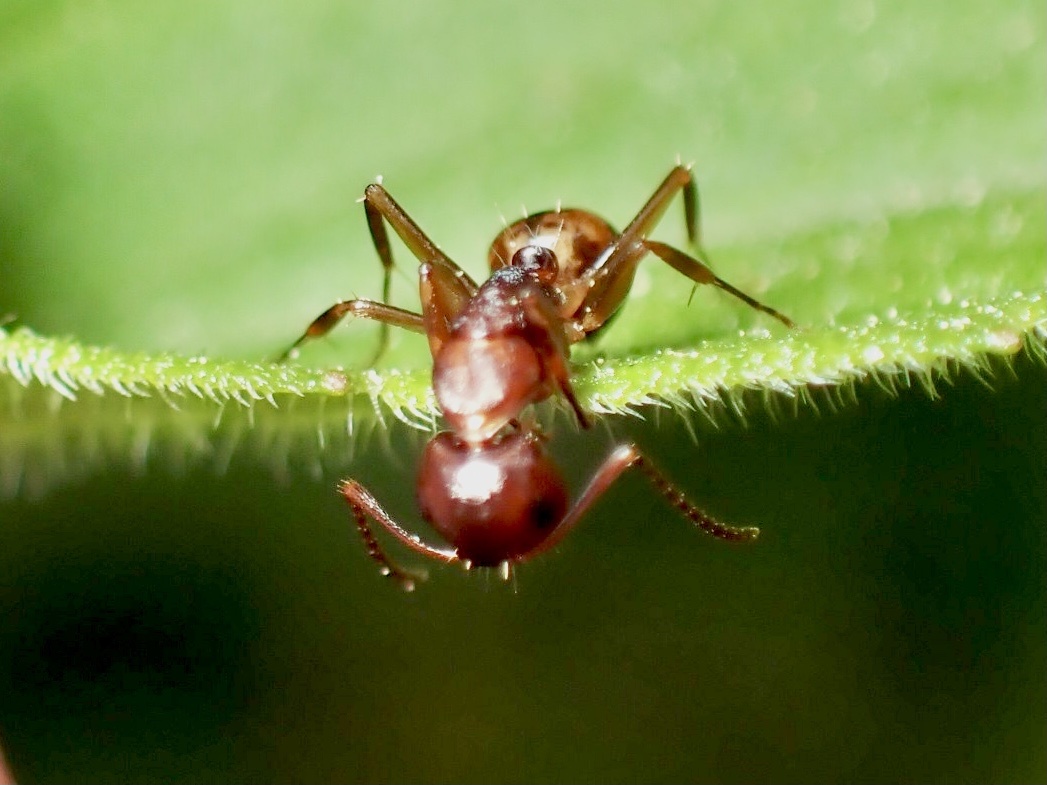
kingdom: Animalia
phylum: Arthropoda
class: Insecta
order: Hymenoptera
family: Formicidae
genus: Camponotus
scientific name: Camponotus subbarbatus
